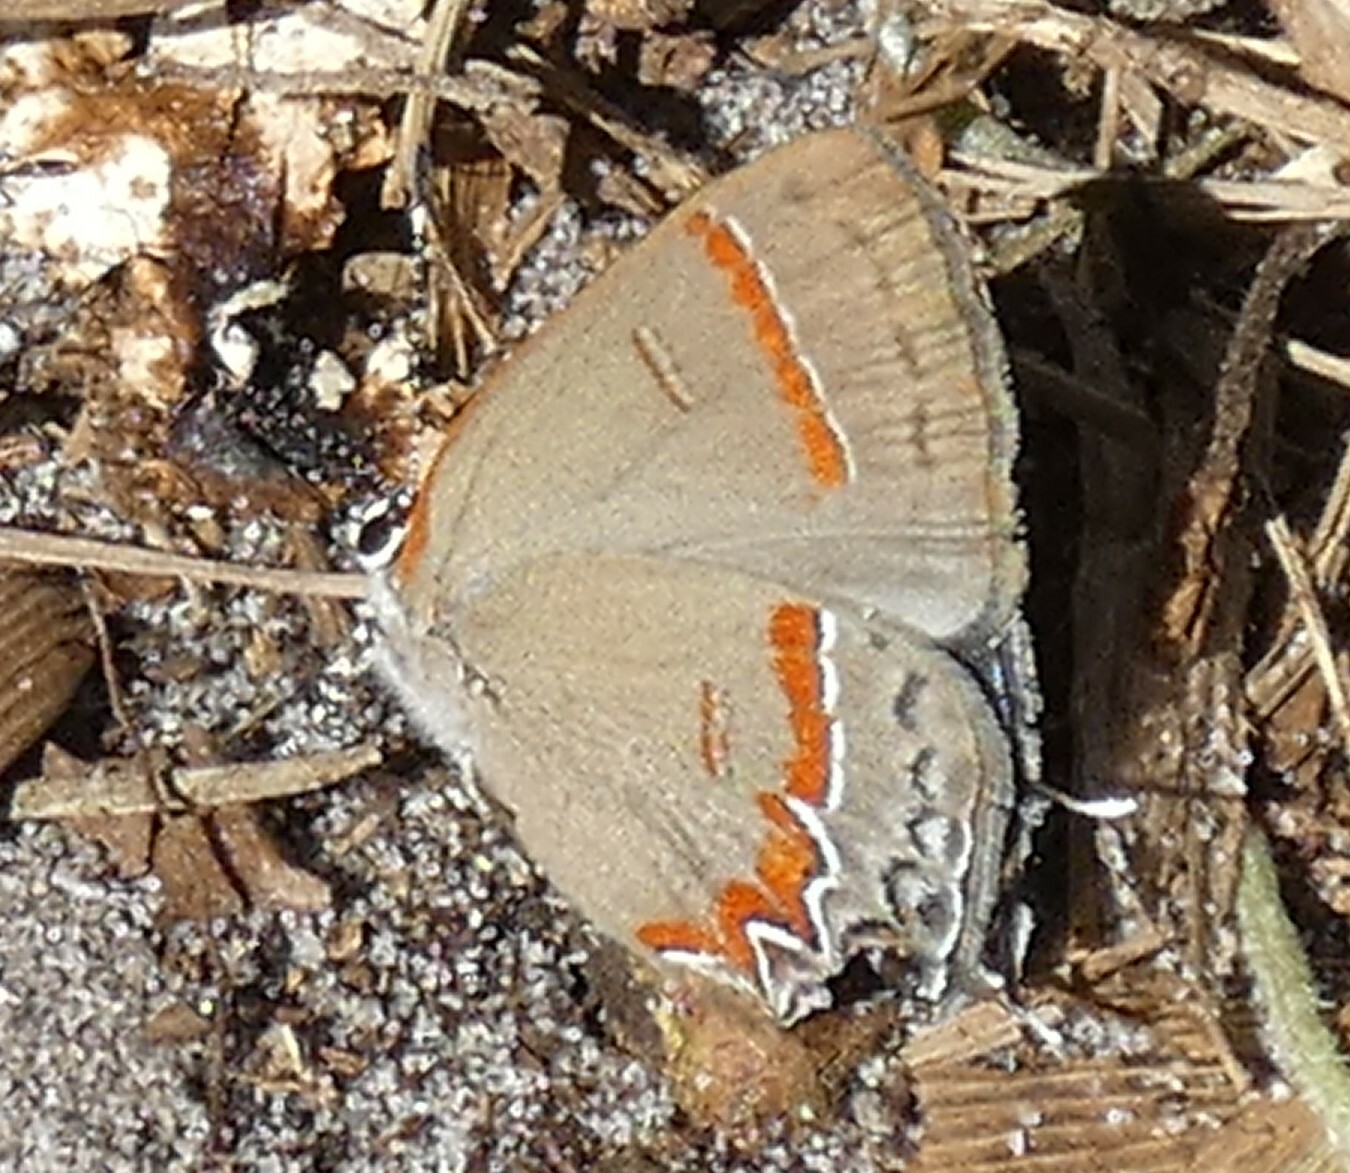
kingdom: Animalia
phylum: Arthropoda
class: Insecta
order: Lepidoptera
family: Lycaenidae
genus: Calycopis
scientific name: Calycopis cecrops
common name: Red-banded hairstreak
